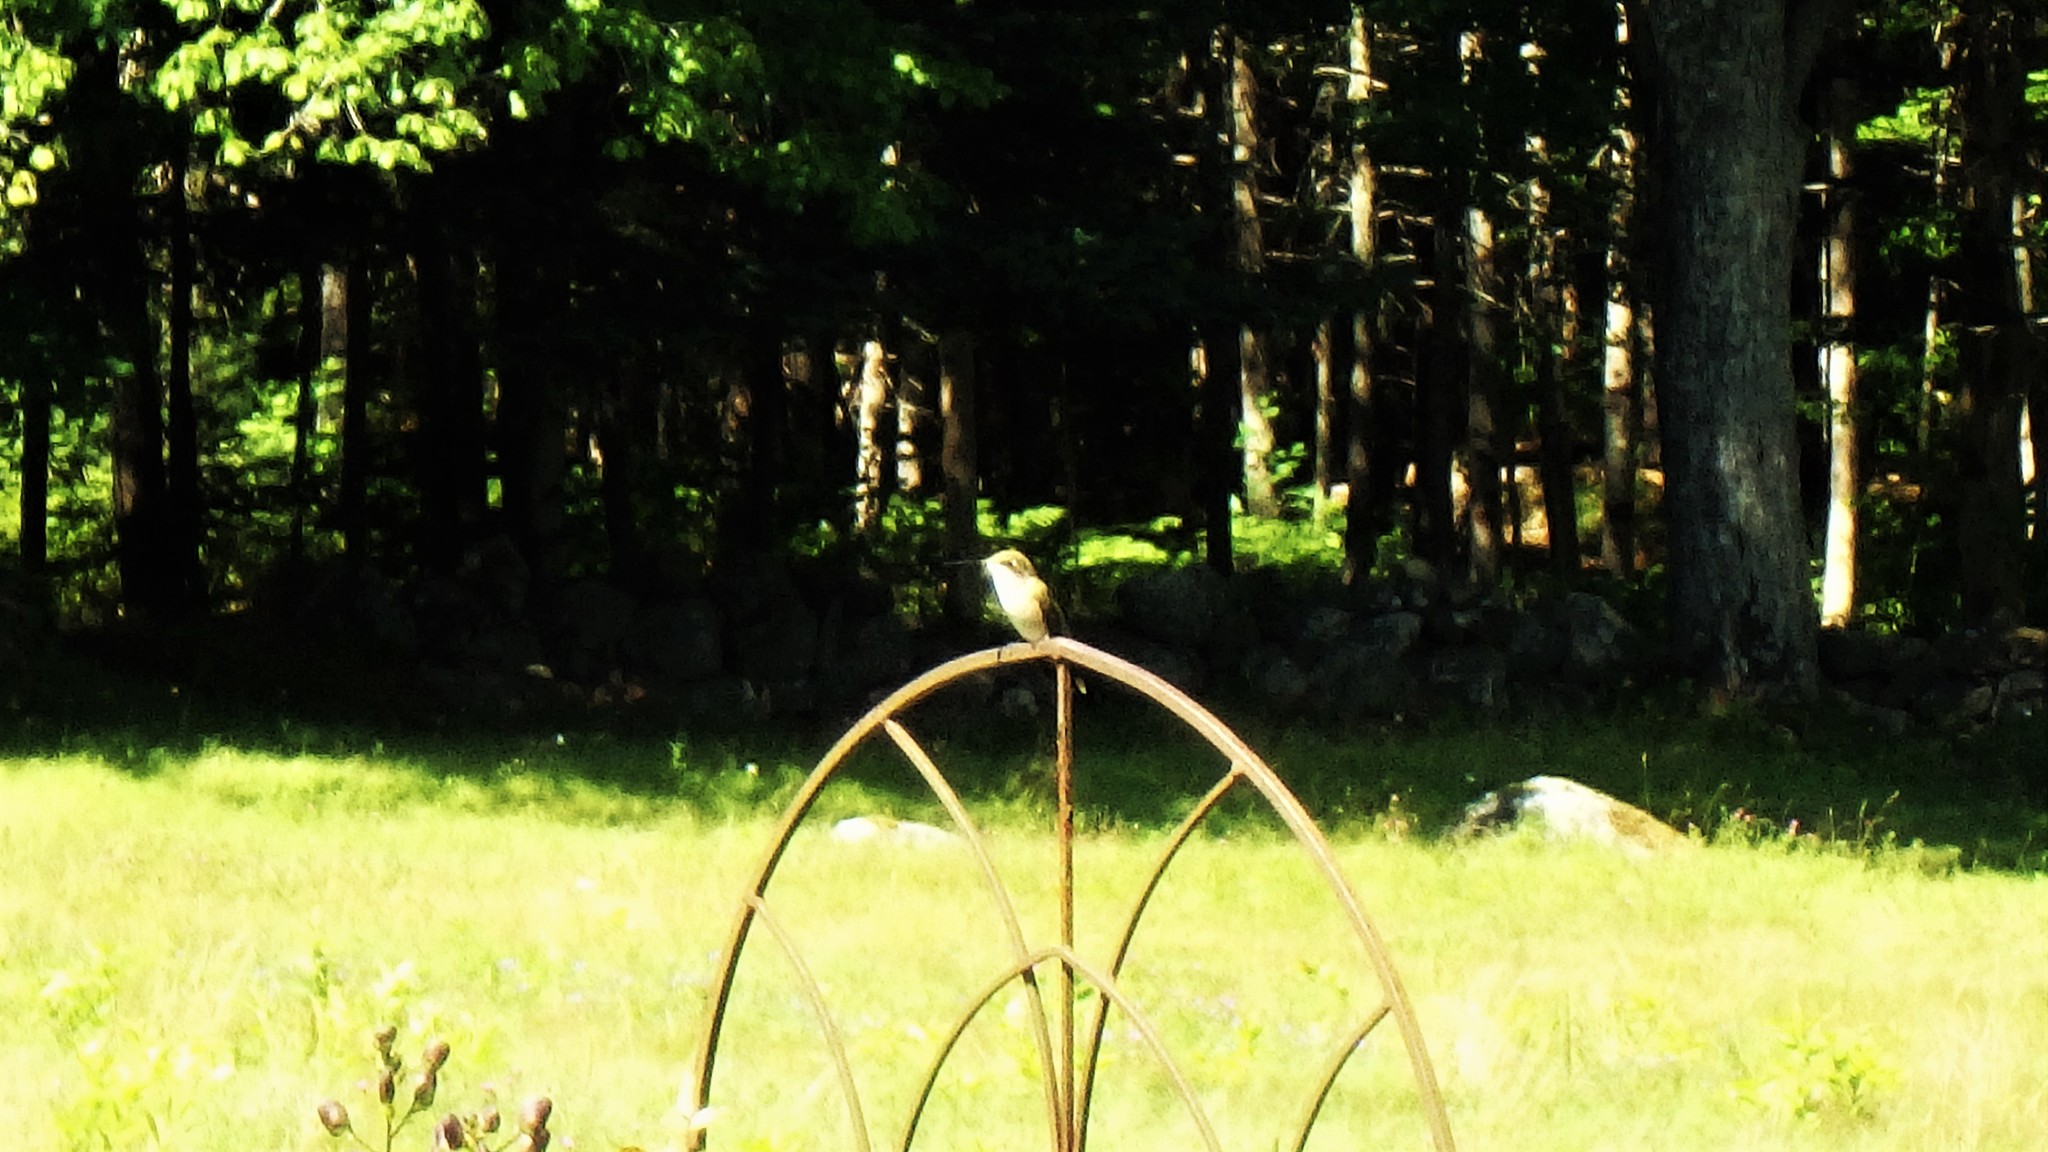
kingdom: Animalia
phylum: Chordata
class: Aves
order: Apodiformes
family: Trochilidae
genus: Archilochus
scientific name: Archilochus colubris
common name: Ruby-throated hummingbird
